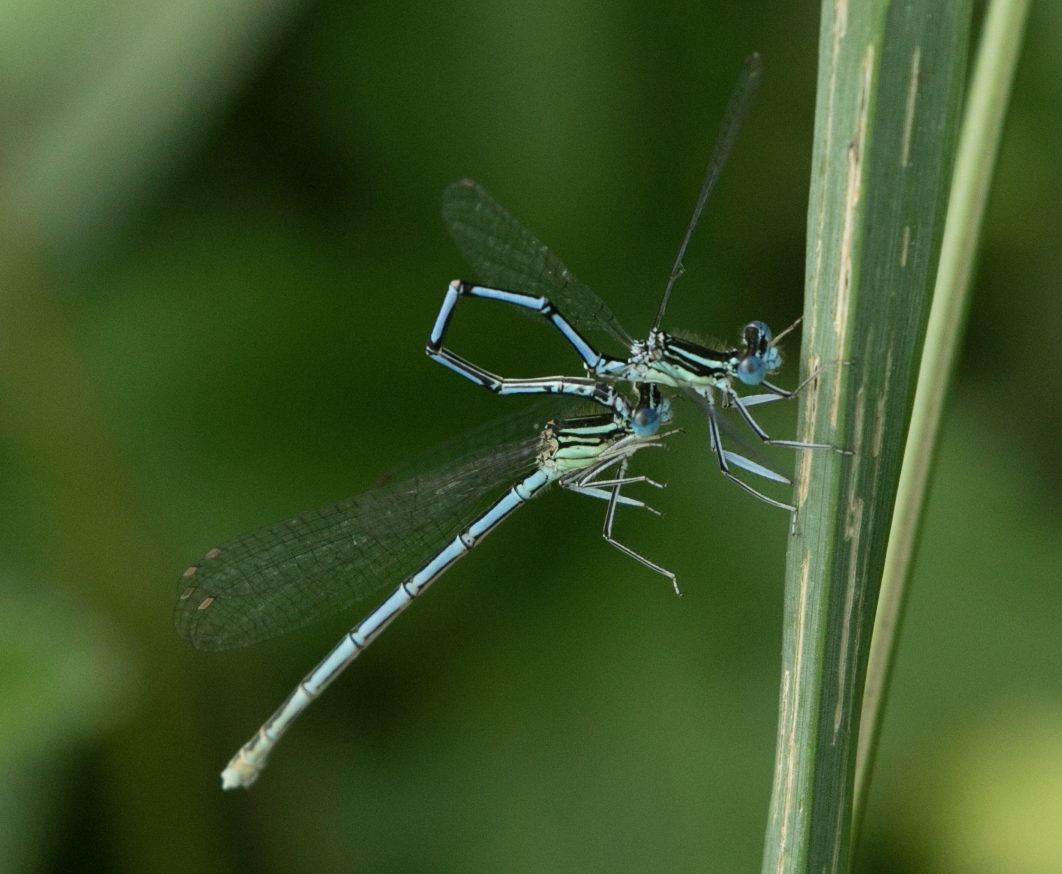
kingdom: Animalia
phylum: Arthropoda
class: Insecta
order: Odonata
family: Platycnemididae
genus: Platycnemis
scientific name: Platycnemis pennipes
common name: White-legged damselfly
